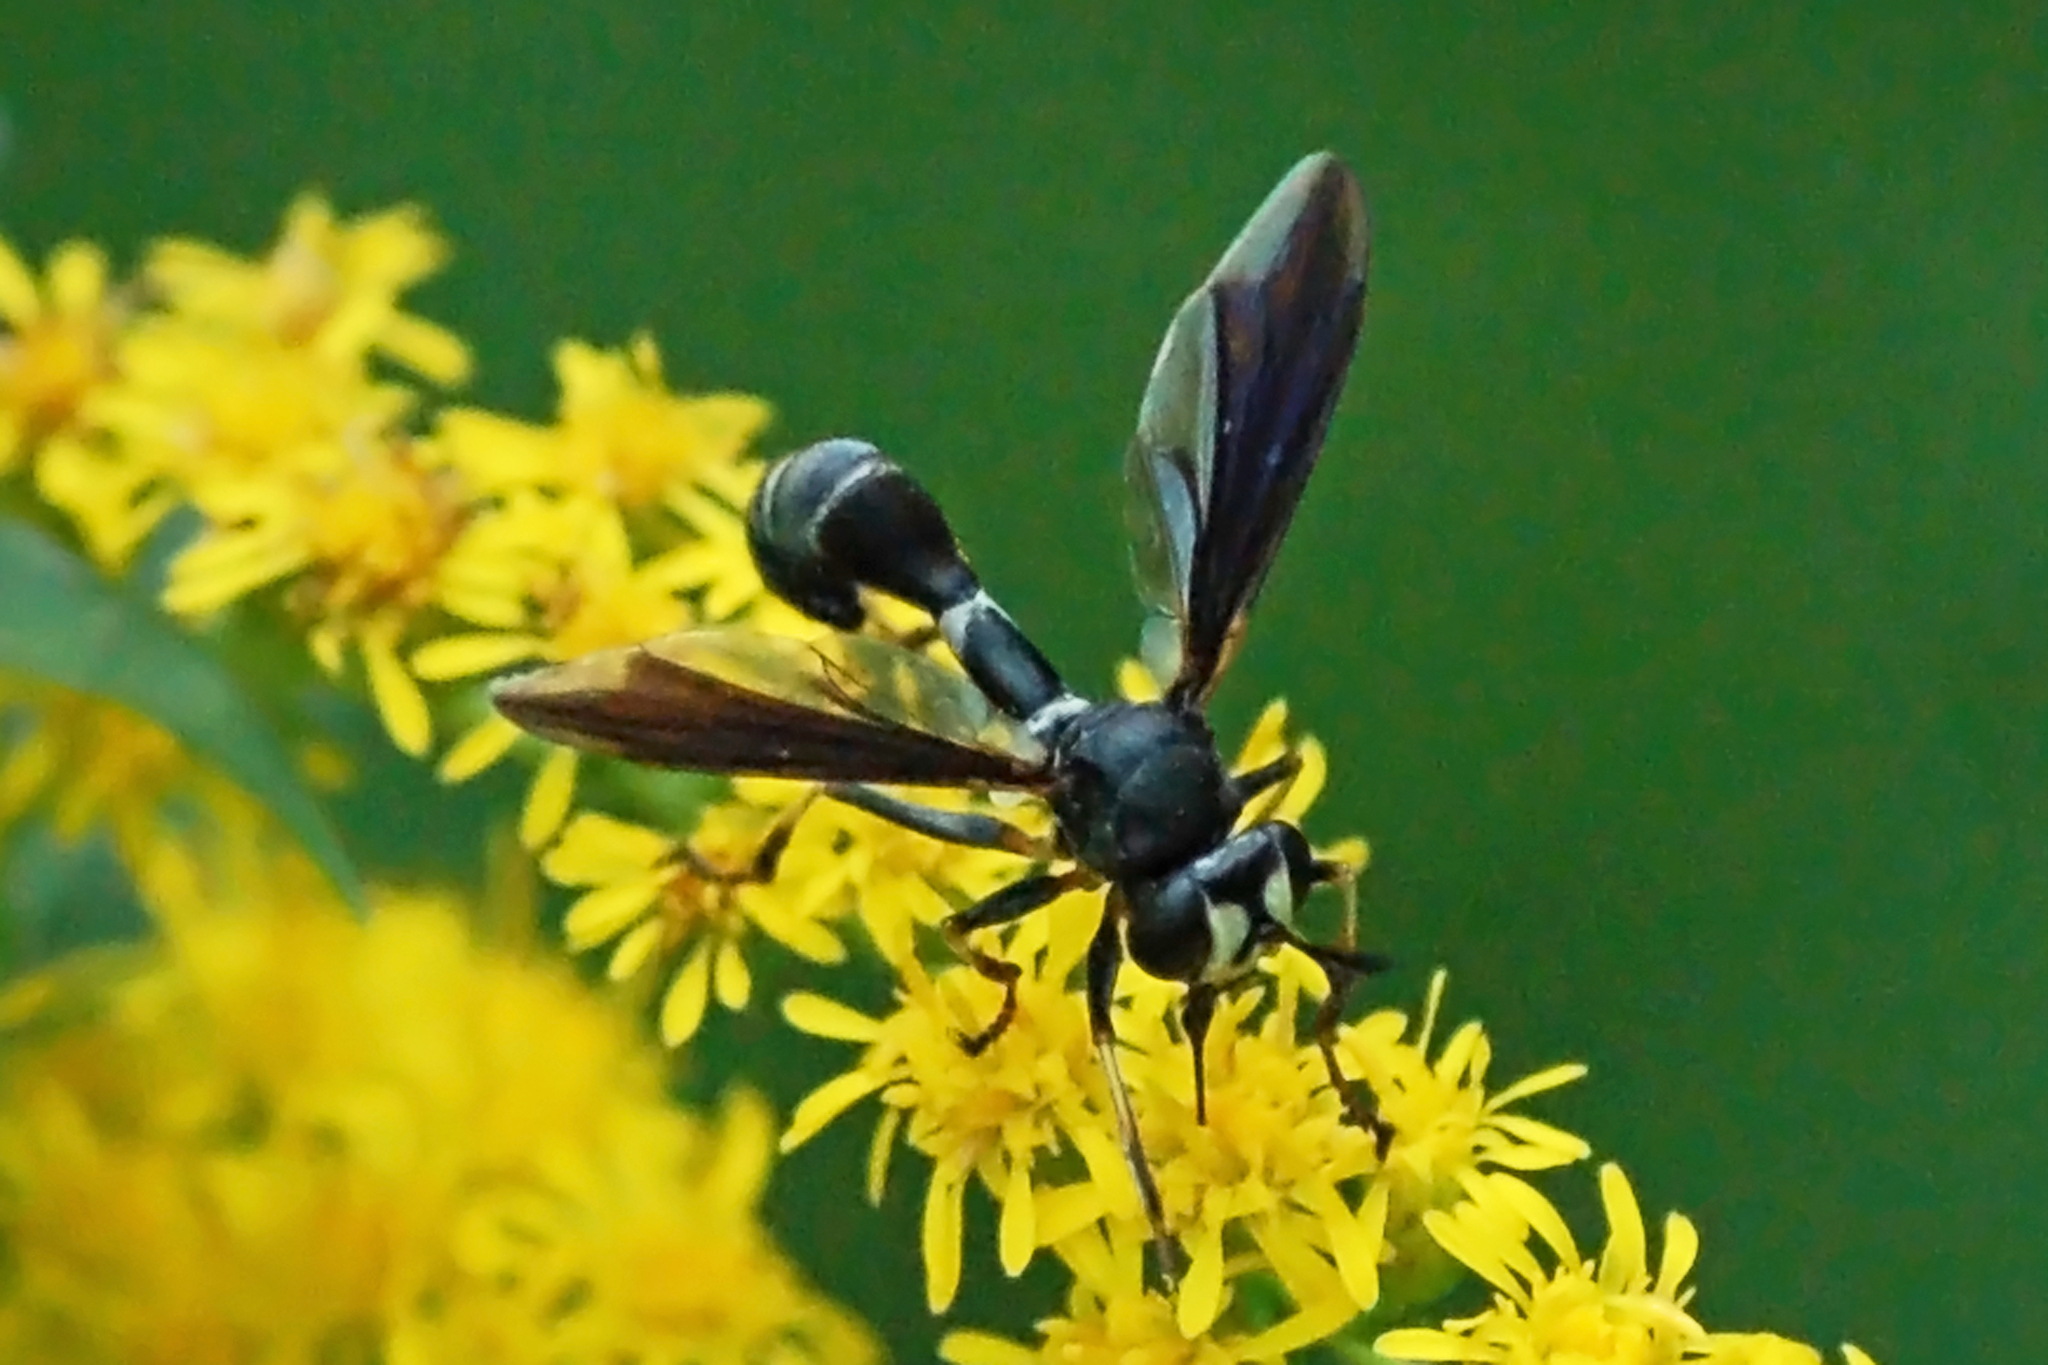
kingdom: Animalia
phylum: Arthropoda
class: Insecta
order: Diptera
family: Conopidae
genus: Physocephala
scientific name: Physocephala tibialis
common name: Common eastern physocephala
